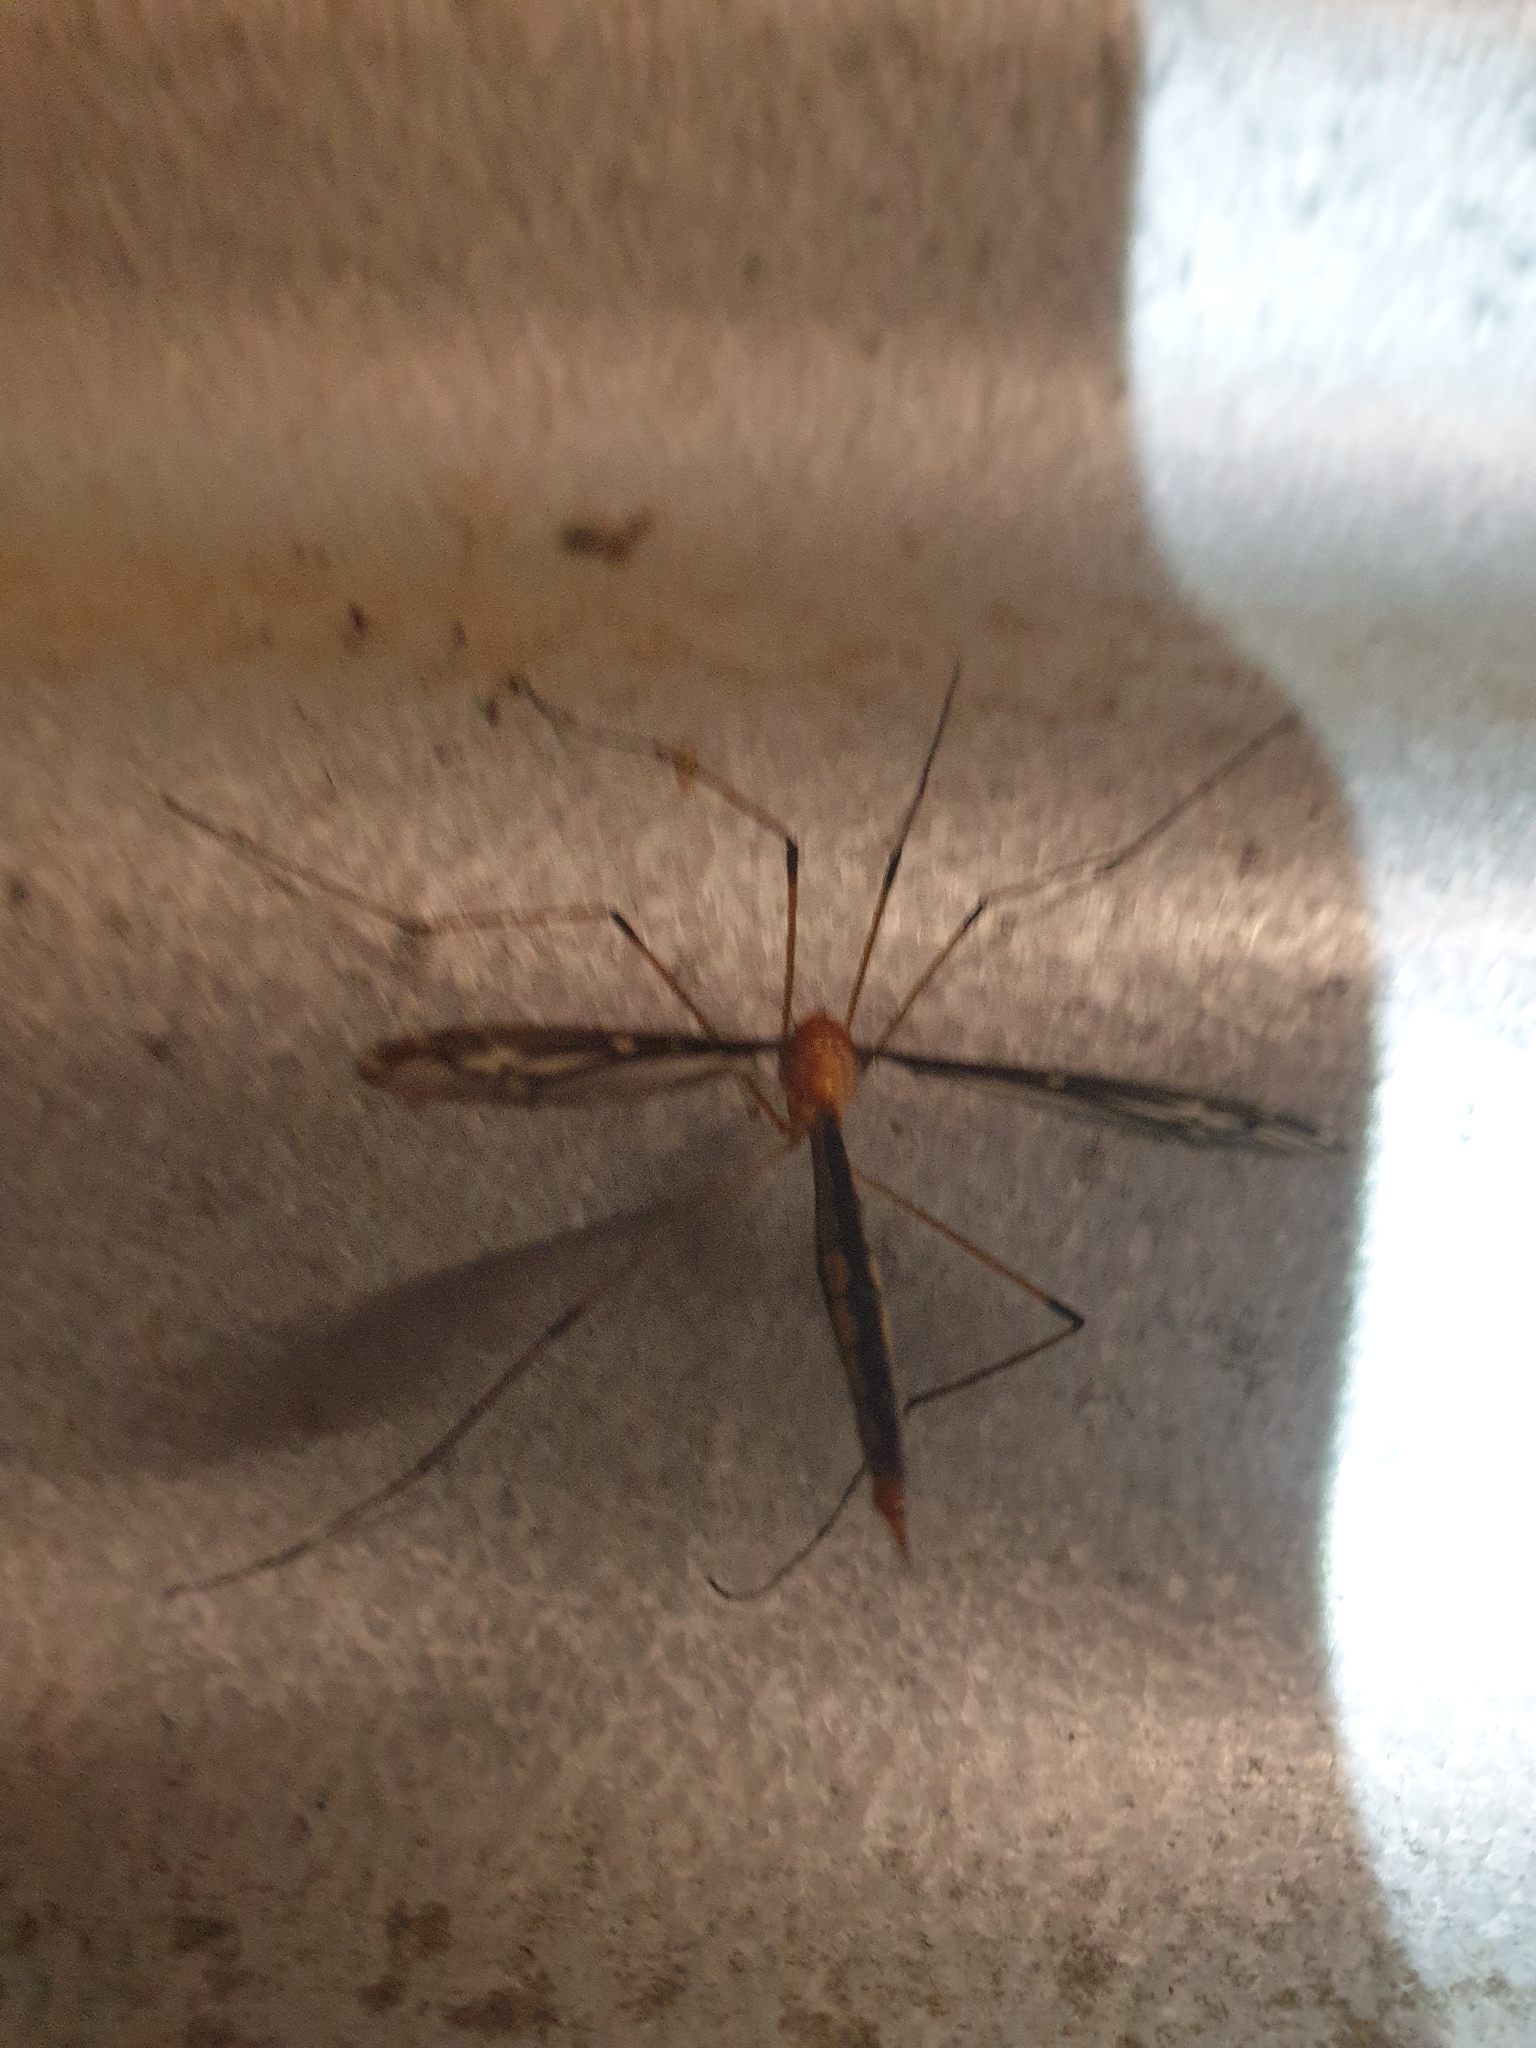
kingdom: Animalia
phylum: Arthropoda
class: Insecta
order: Diptera
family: Tipulidae
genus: Ptilogyna
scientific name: Ptilogyna ramicornis
